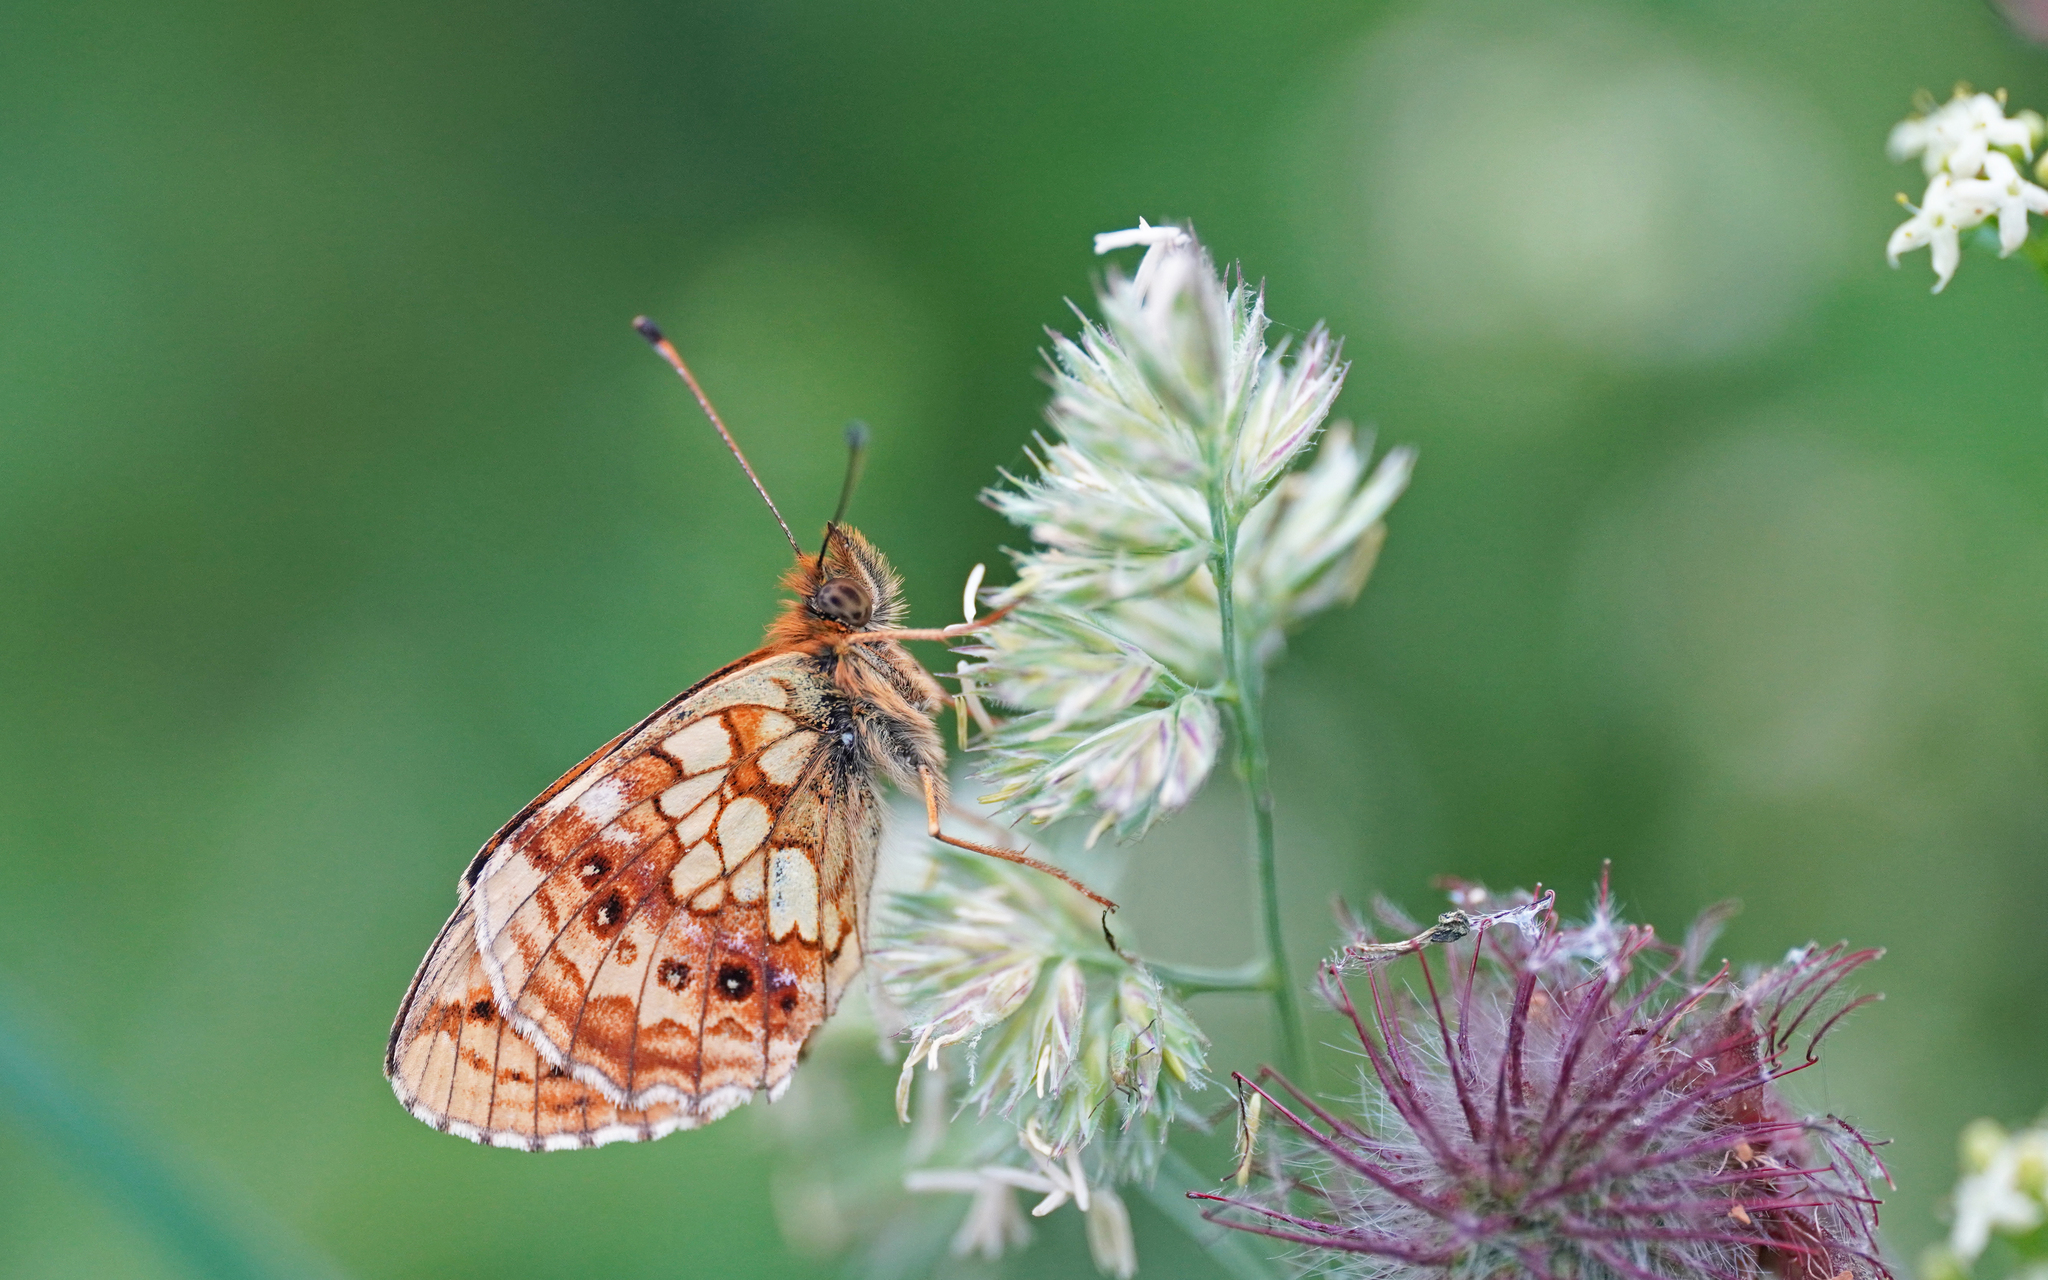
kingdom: Animalia
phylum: Arthropoda
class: Insecta
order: Lepidoptera
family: Nymphalidae
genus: Brenthis
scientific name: Brenthis ino
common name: Lesser marbled fritillary
